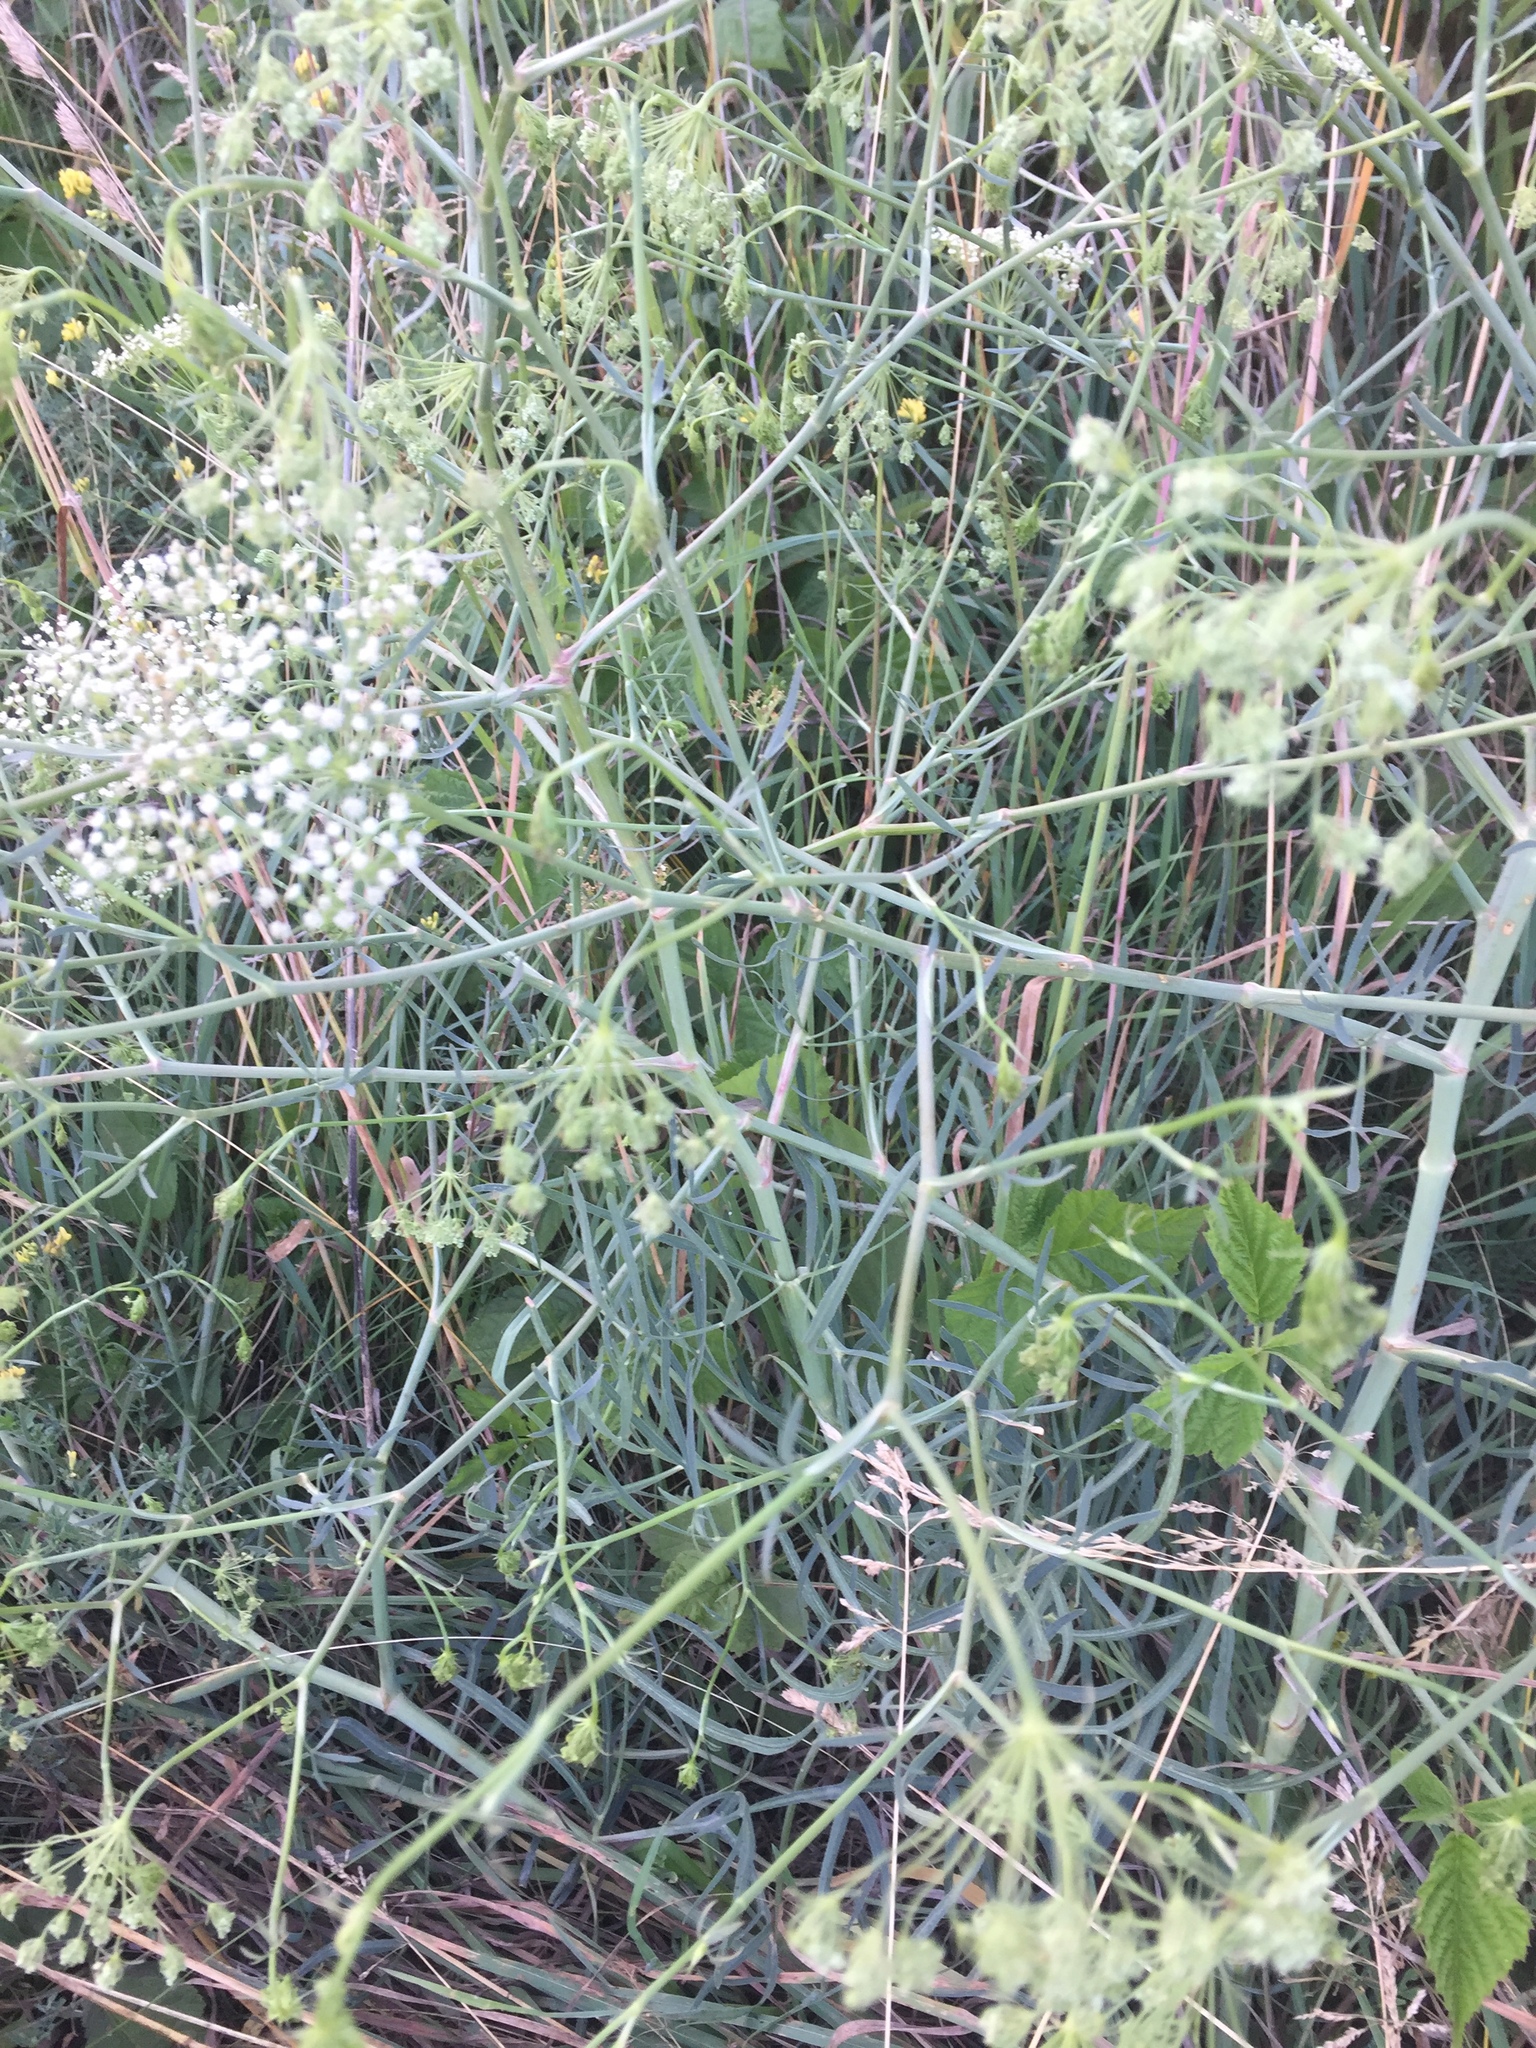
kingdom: Plantae
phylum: Tracheophyta
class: Magnoliopsida
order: Apiales
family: Apiaceae
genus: Falcaria
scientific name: Falcaria vulgaris
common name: Longleaf
